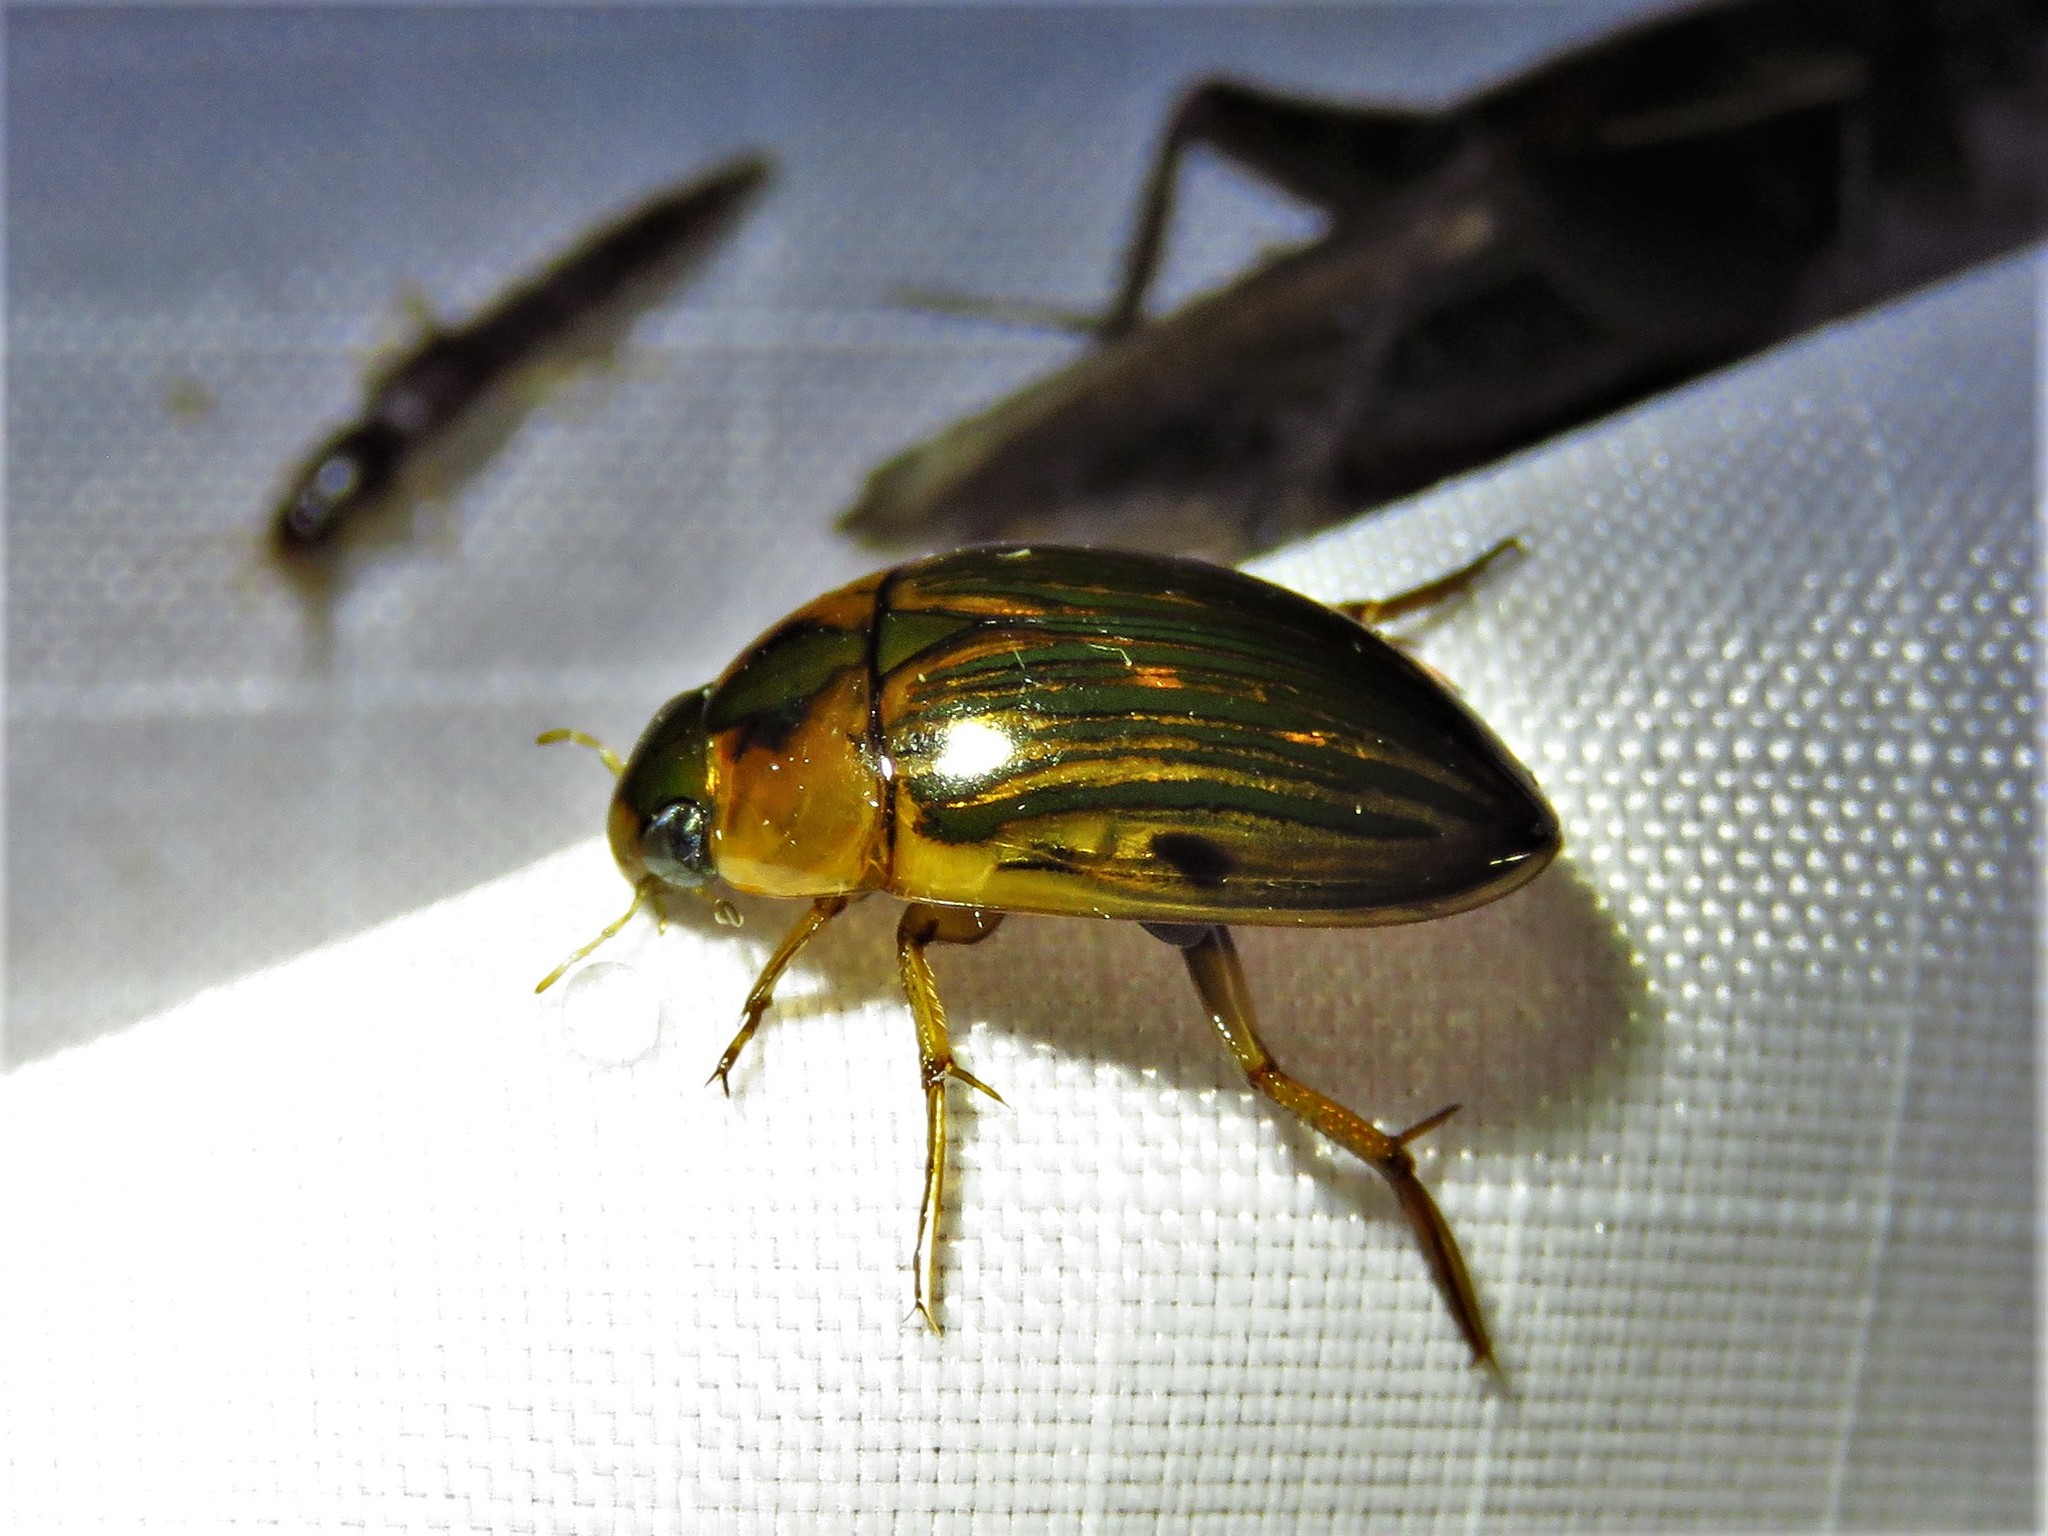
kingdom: Animalia
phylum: Arthropoda
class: Insecta
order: Coleoptera
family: Hydrophilidae
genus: Tropisternus
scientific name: Tropisternus collaris
